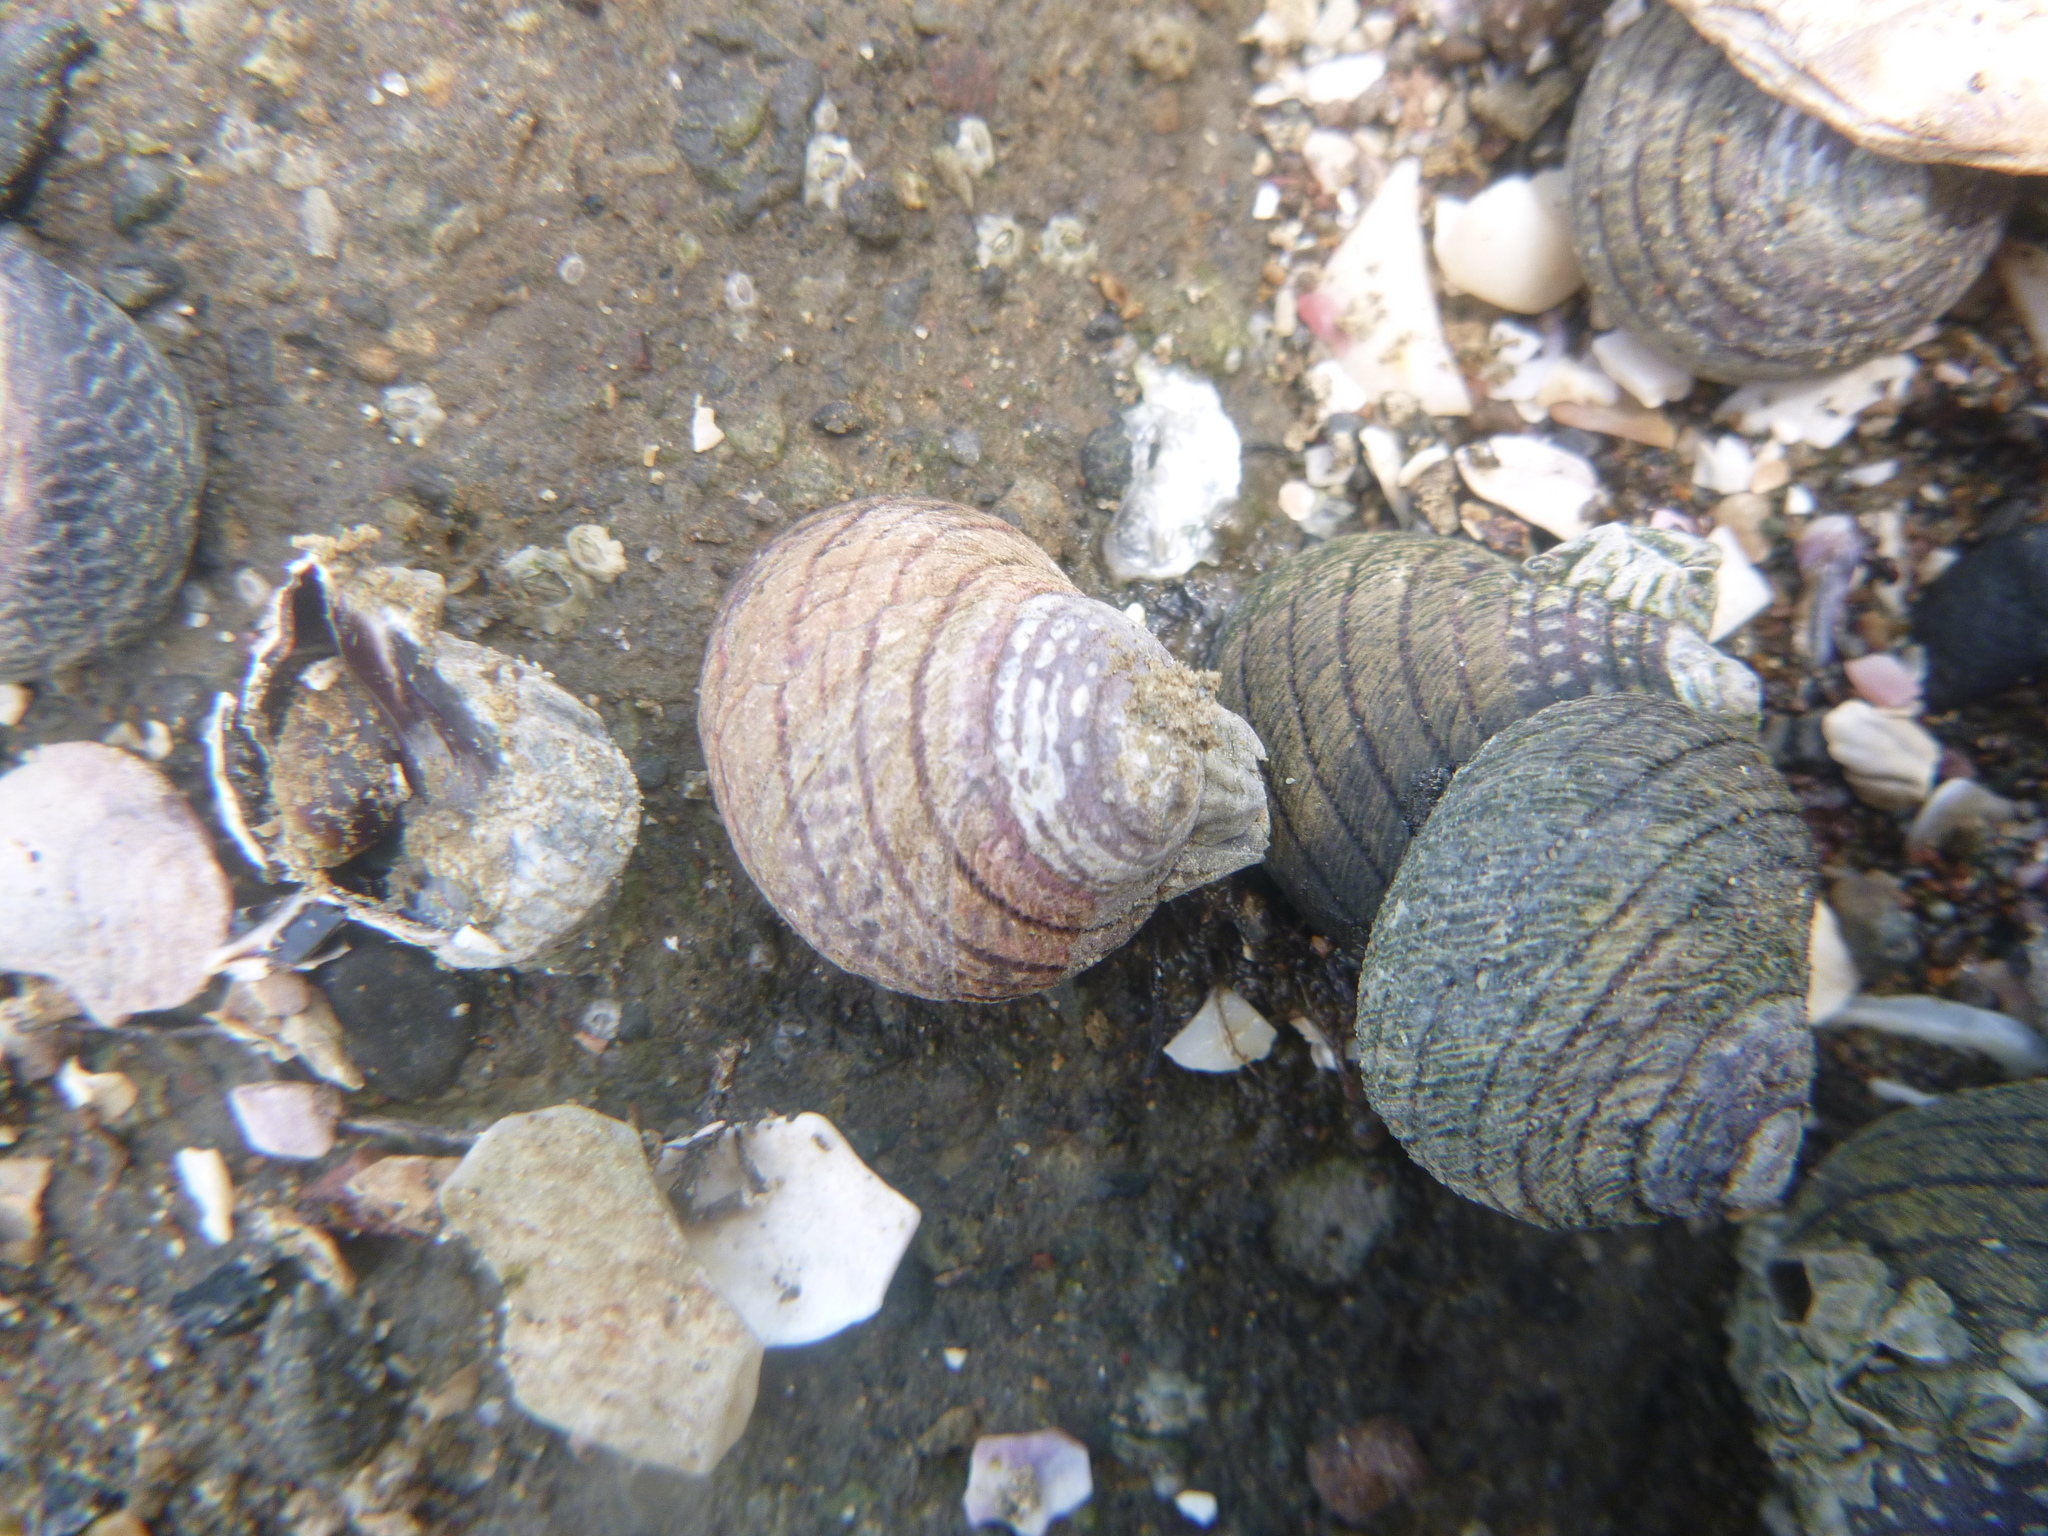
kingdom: Animalia
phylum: Mollusca
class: Gastropoda
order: Trochida
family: Trochidae
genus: Diloma
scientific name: Diloma aethiops
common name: Scorched monodont
